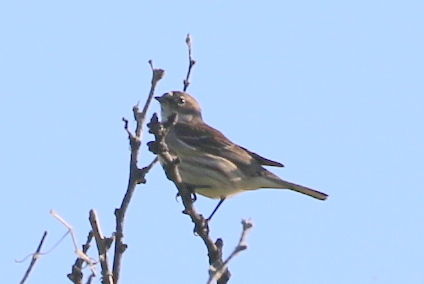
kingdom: Animalia
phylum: Chordata
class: Aves
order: Passeriformes
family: Parulidae
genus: Setophaga
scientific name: Setophaga coronata
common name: Myrtle warbler
